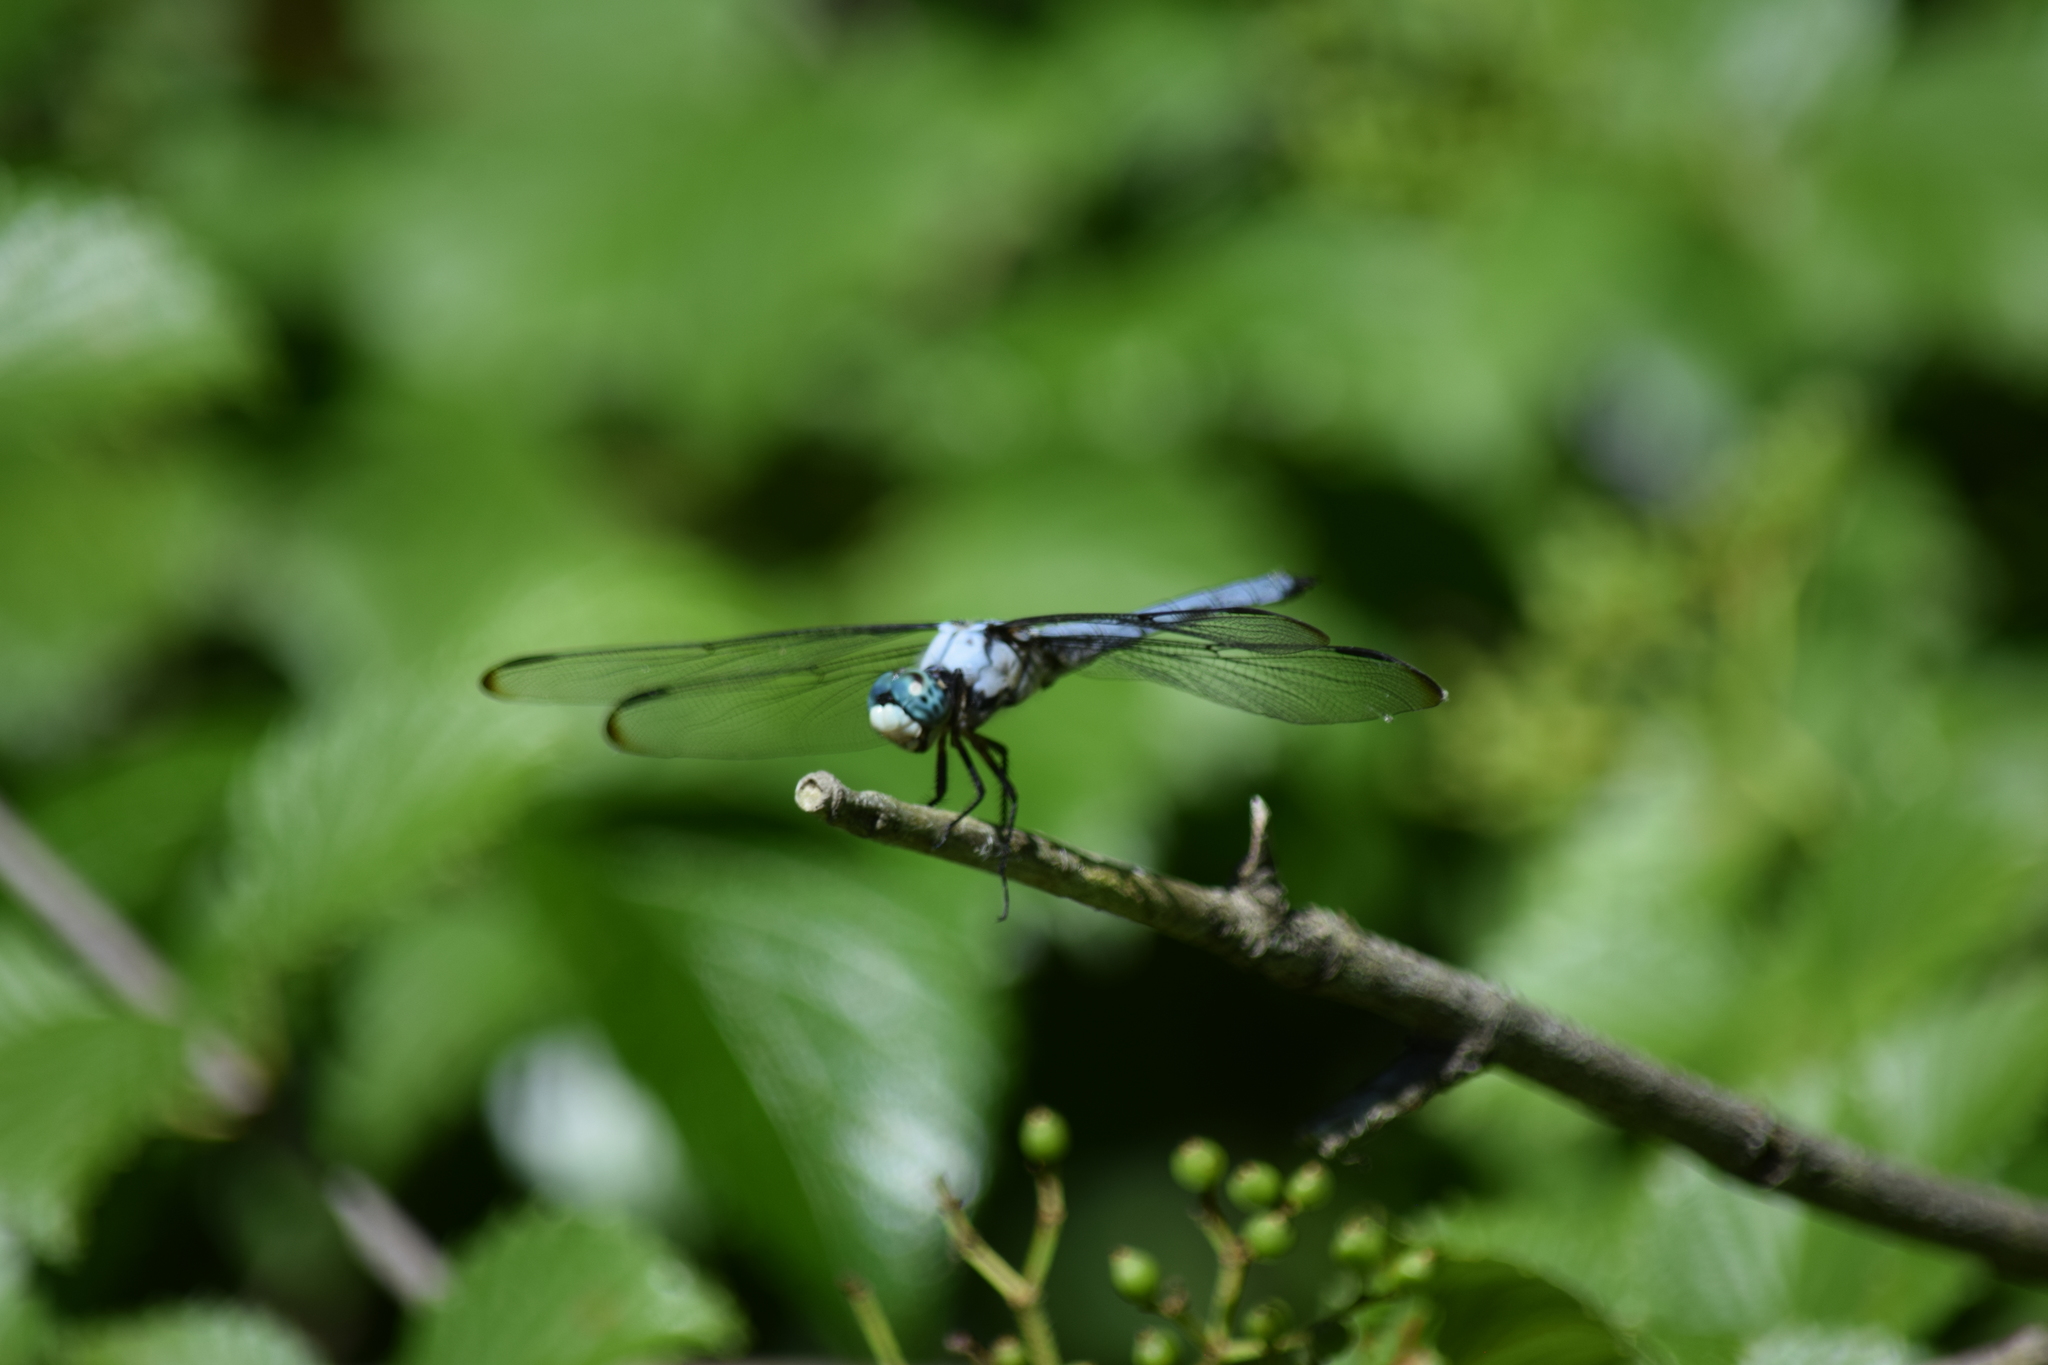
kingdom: Animalia
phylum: Arthropoda
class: Insecta
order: Odonata
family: Libellulidae
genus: Libellula
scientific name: Libellula vibrans
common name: Great blue skimmer
